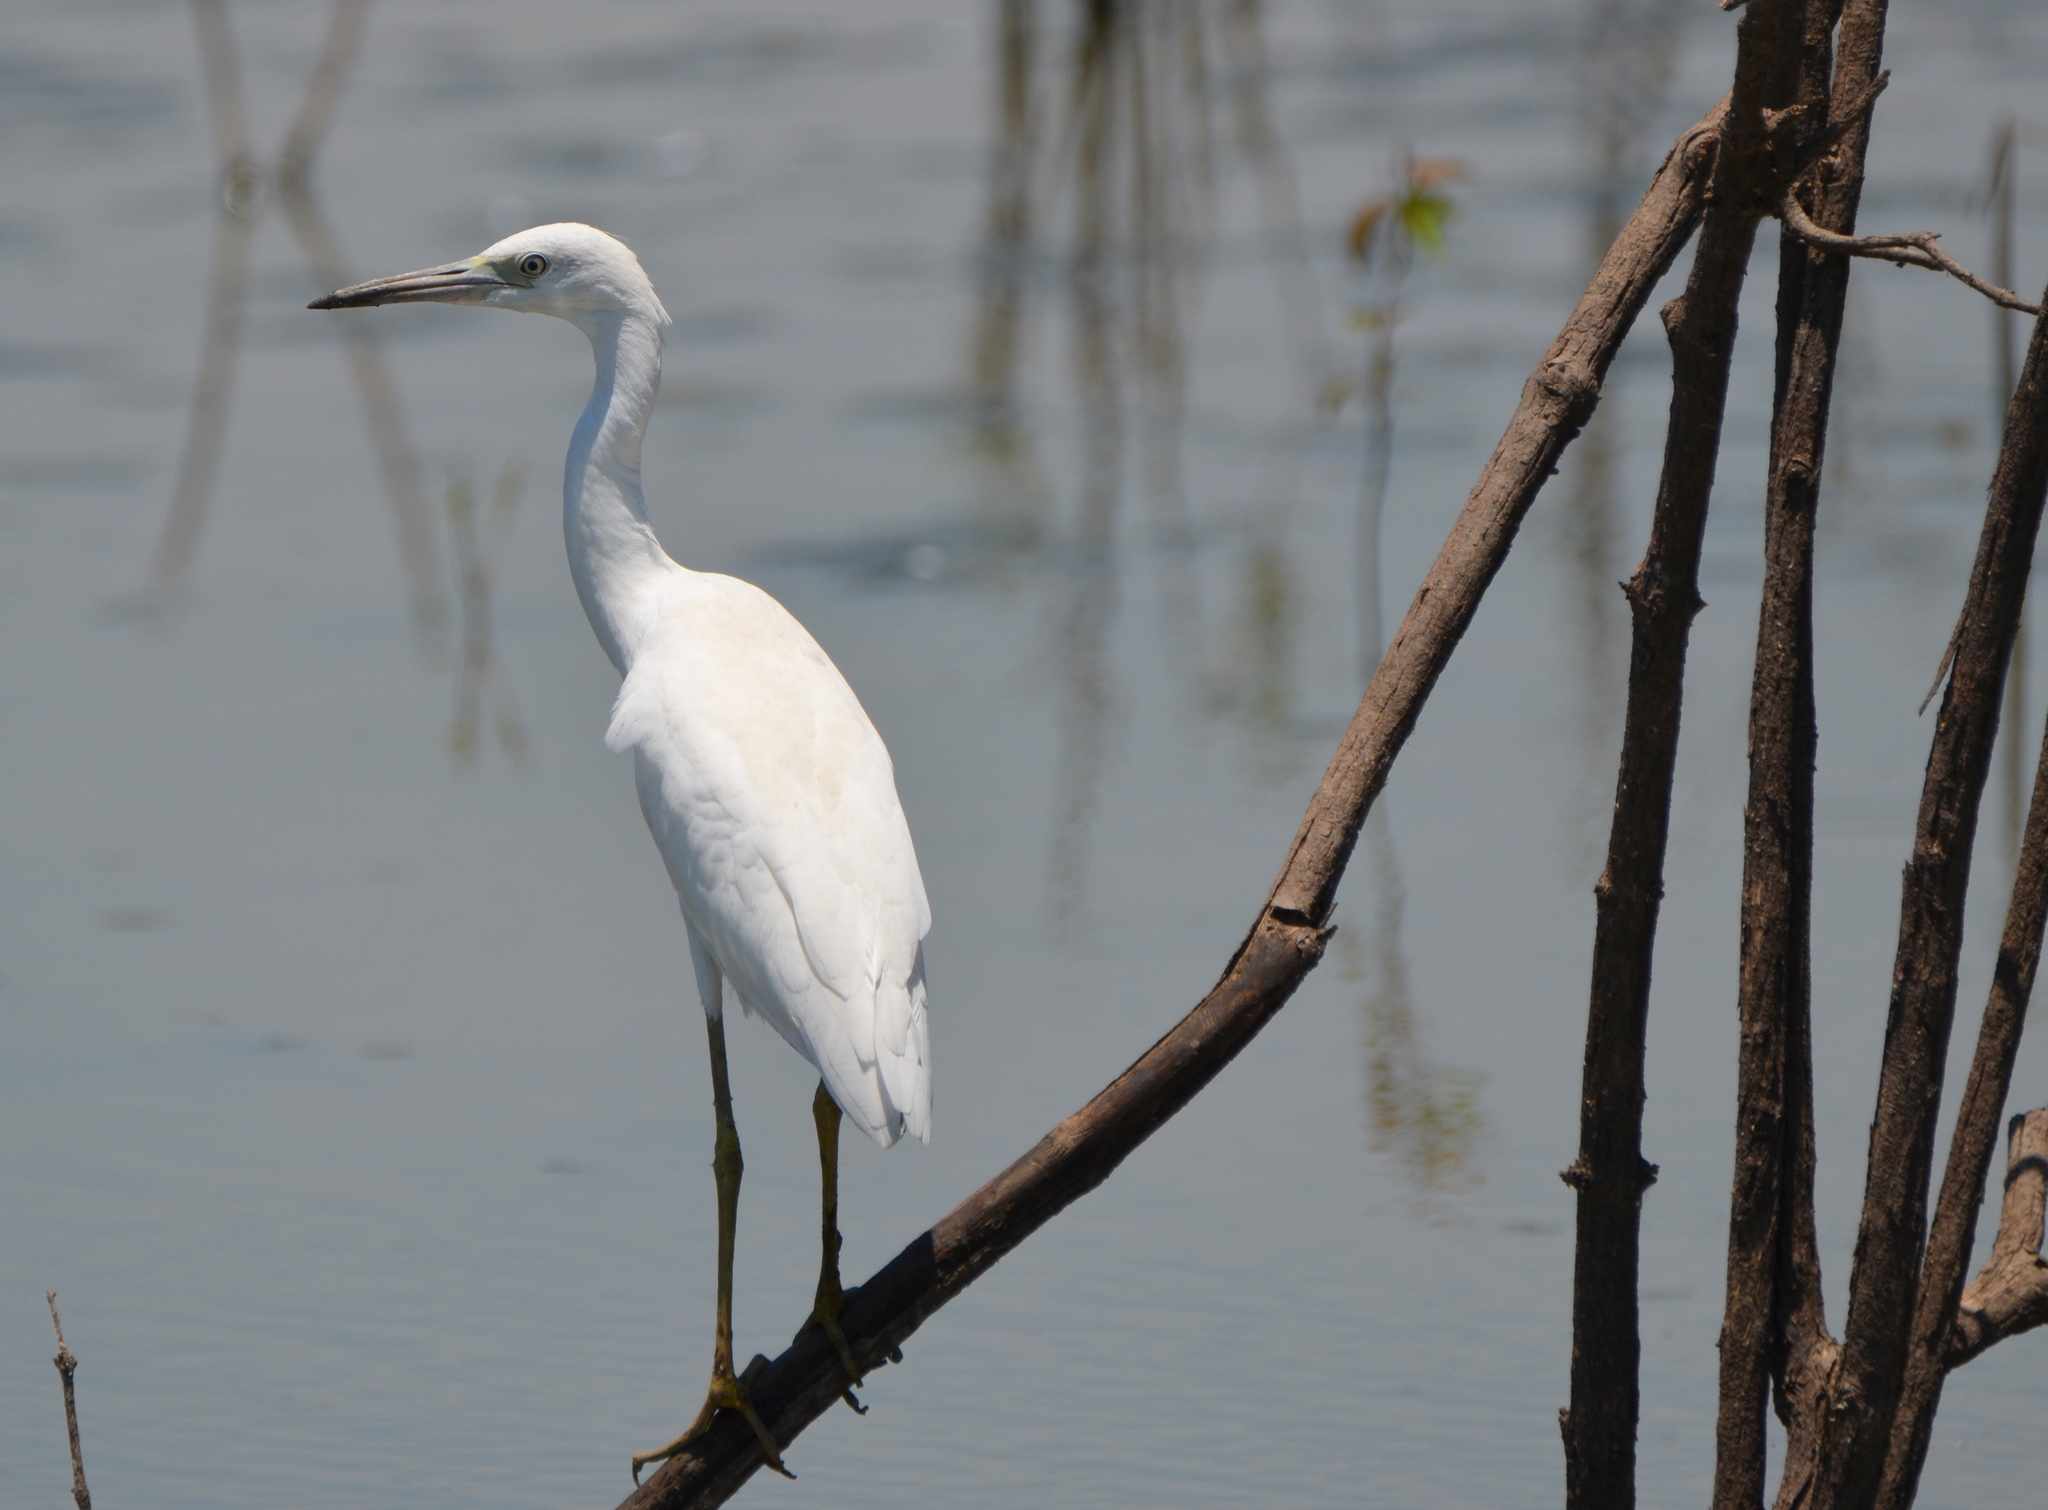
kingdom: Animalia
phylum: Chordata
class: Aves
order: Pelecaniformes
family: Ardeidae
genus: Egretta
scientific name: Egretta caerulea
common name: Little blue heron
